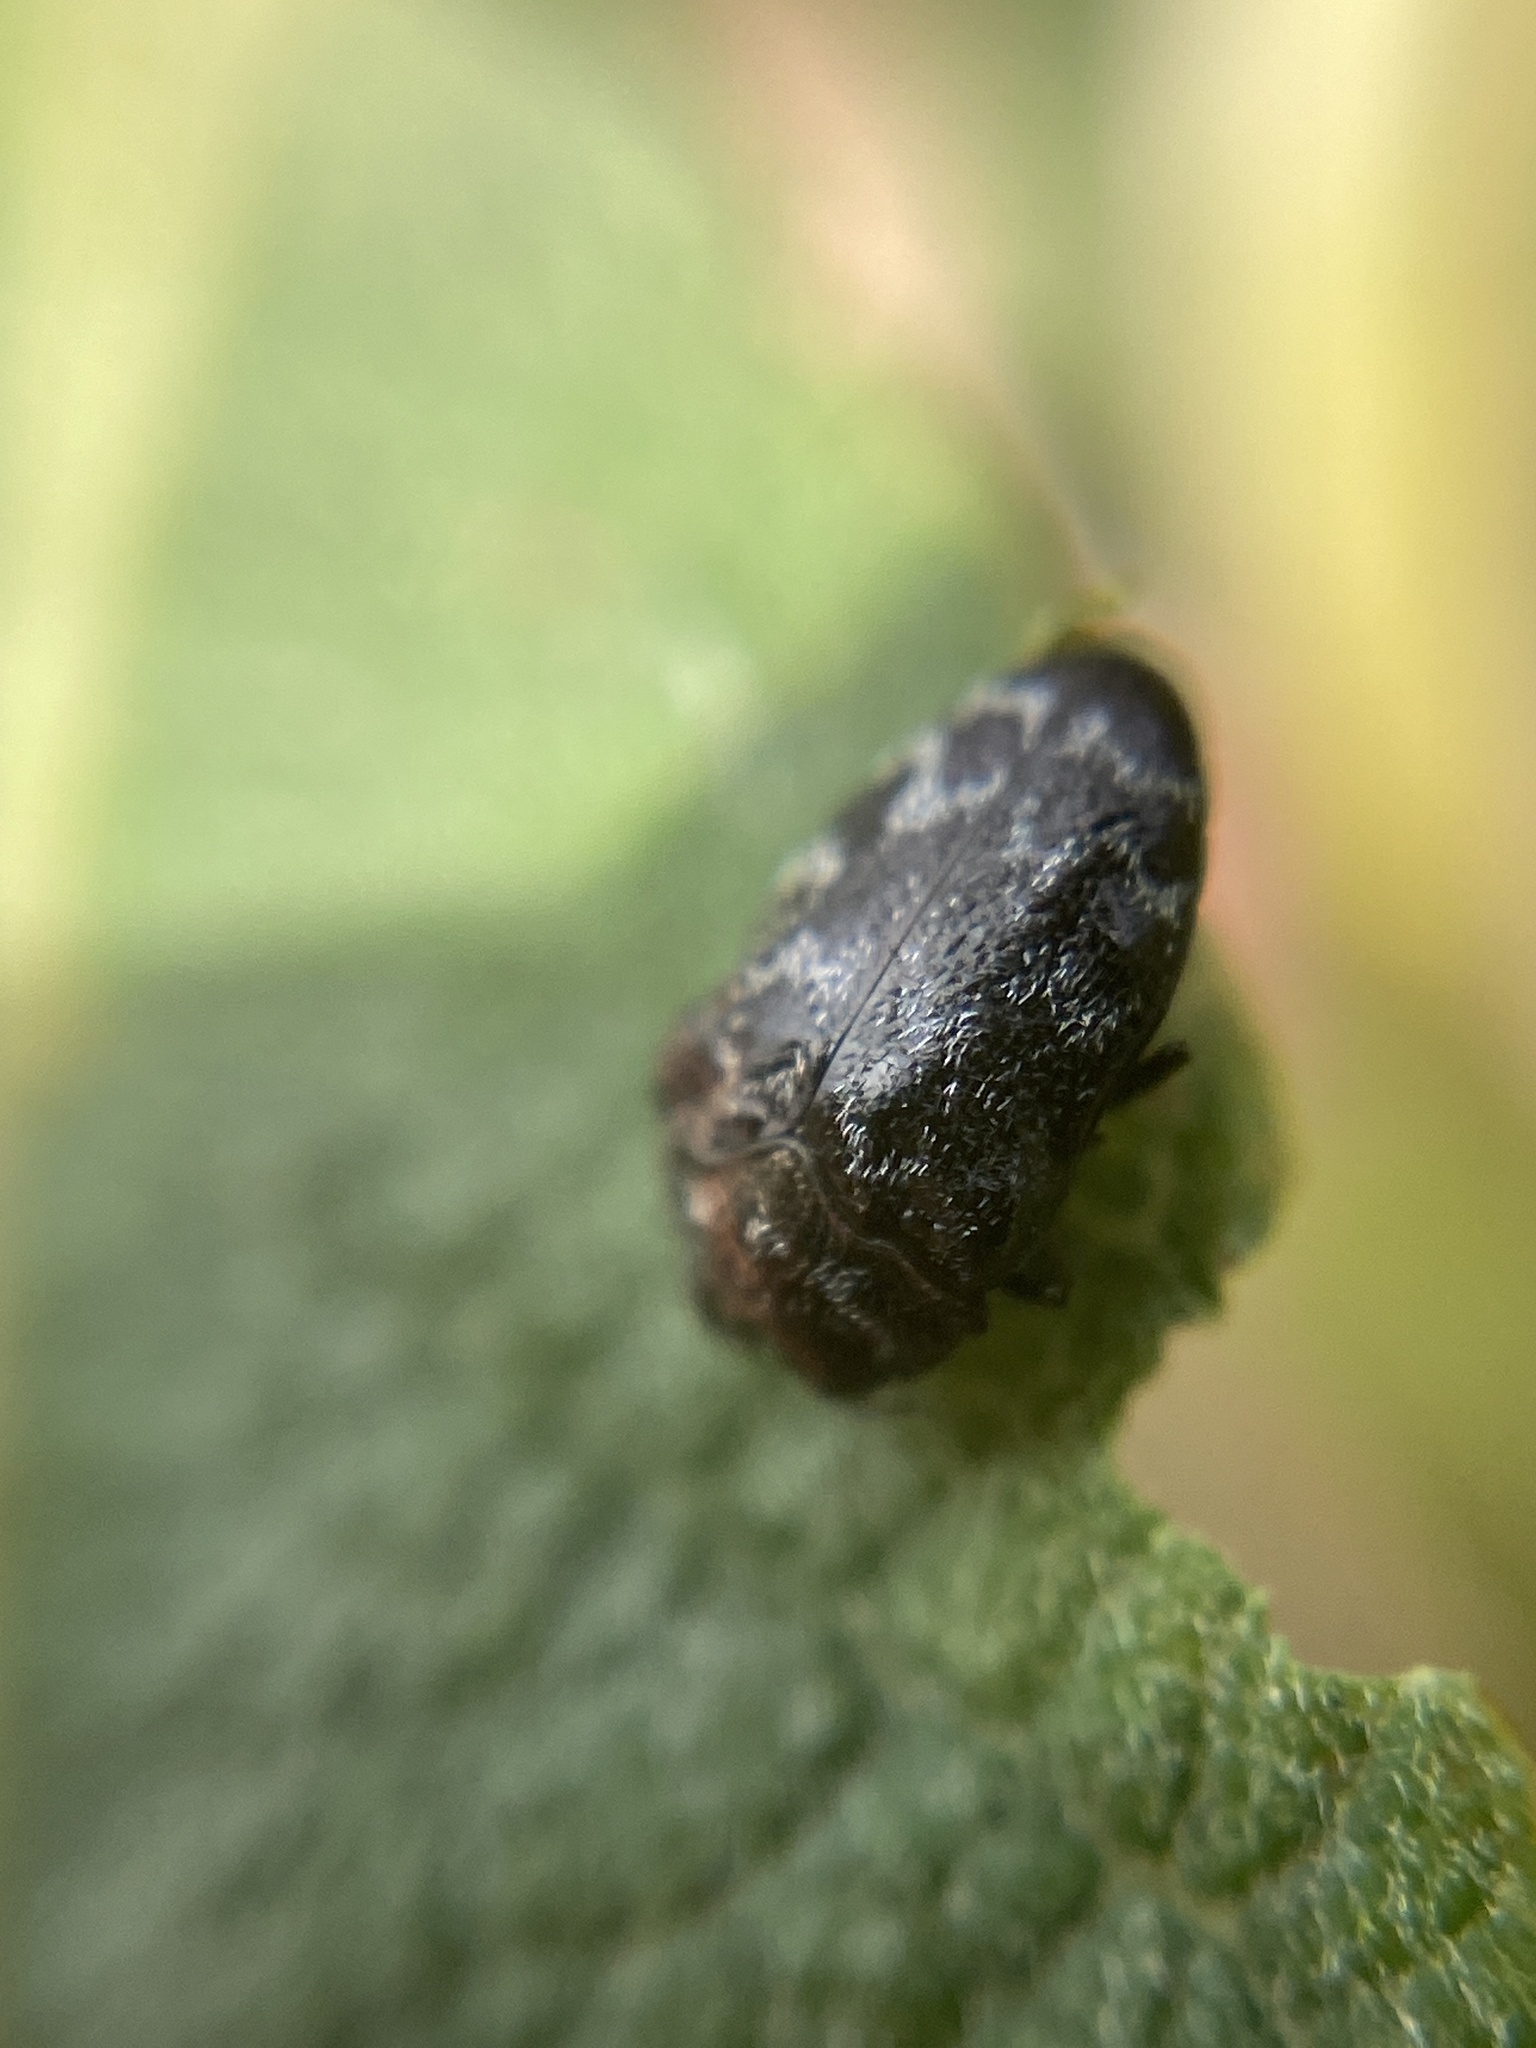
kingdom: Animalia
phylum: Arthropoda
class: Insecta
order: Coleoptera
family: Buprestidae
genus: Trachys
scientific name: Trachys minutus
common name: Metallic wood-boring beetle
